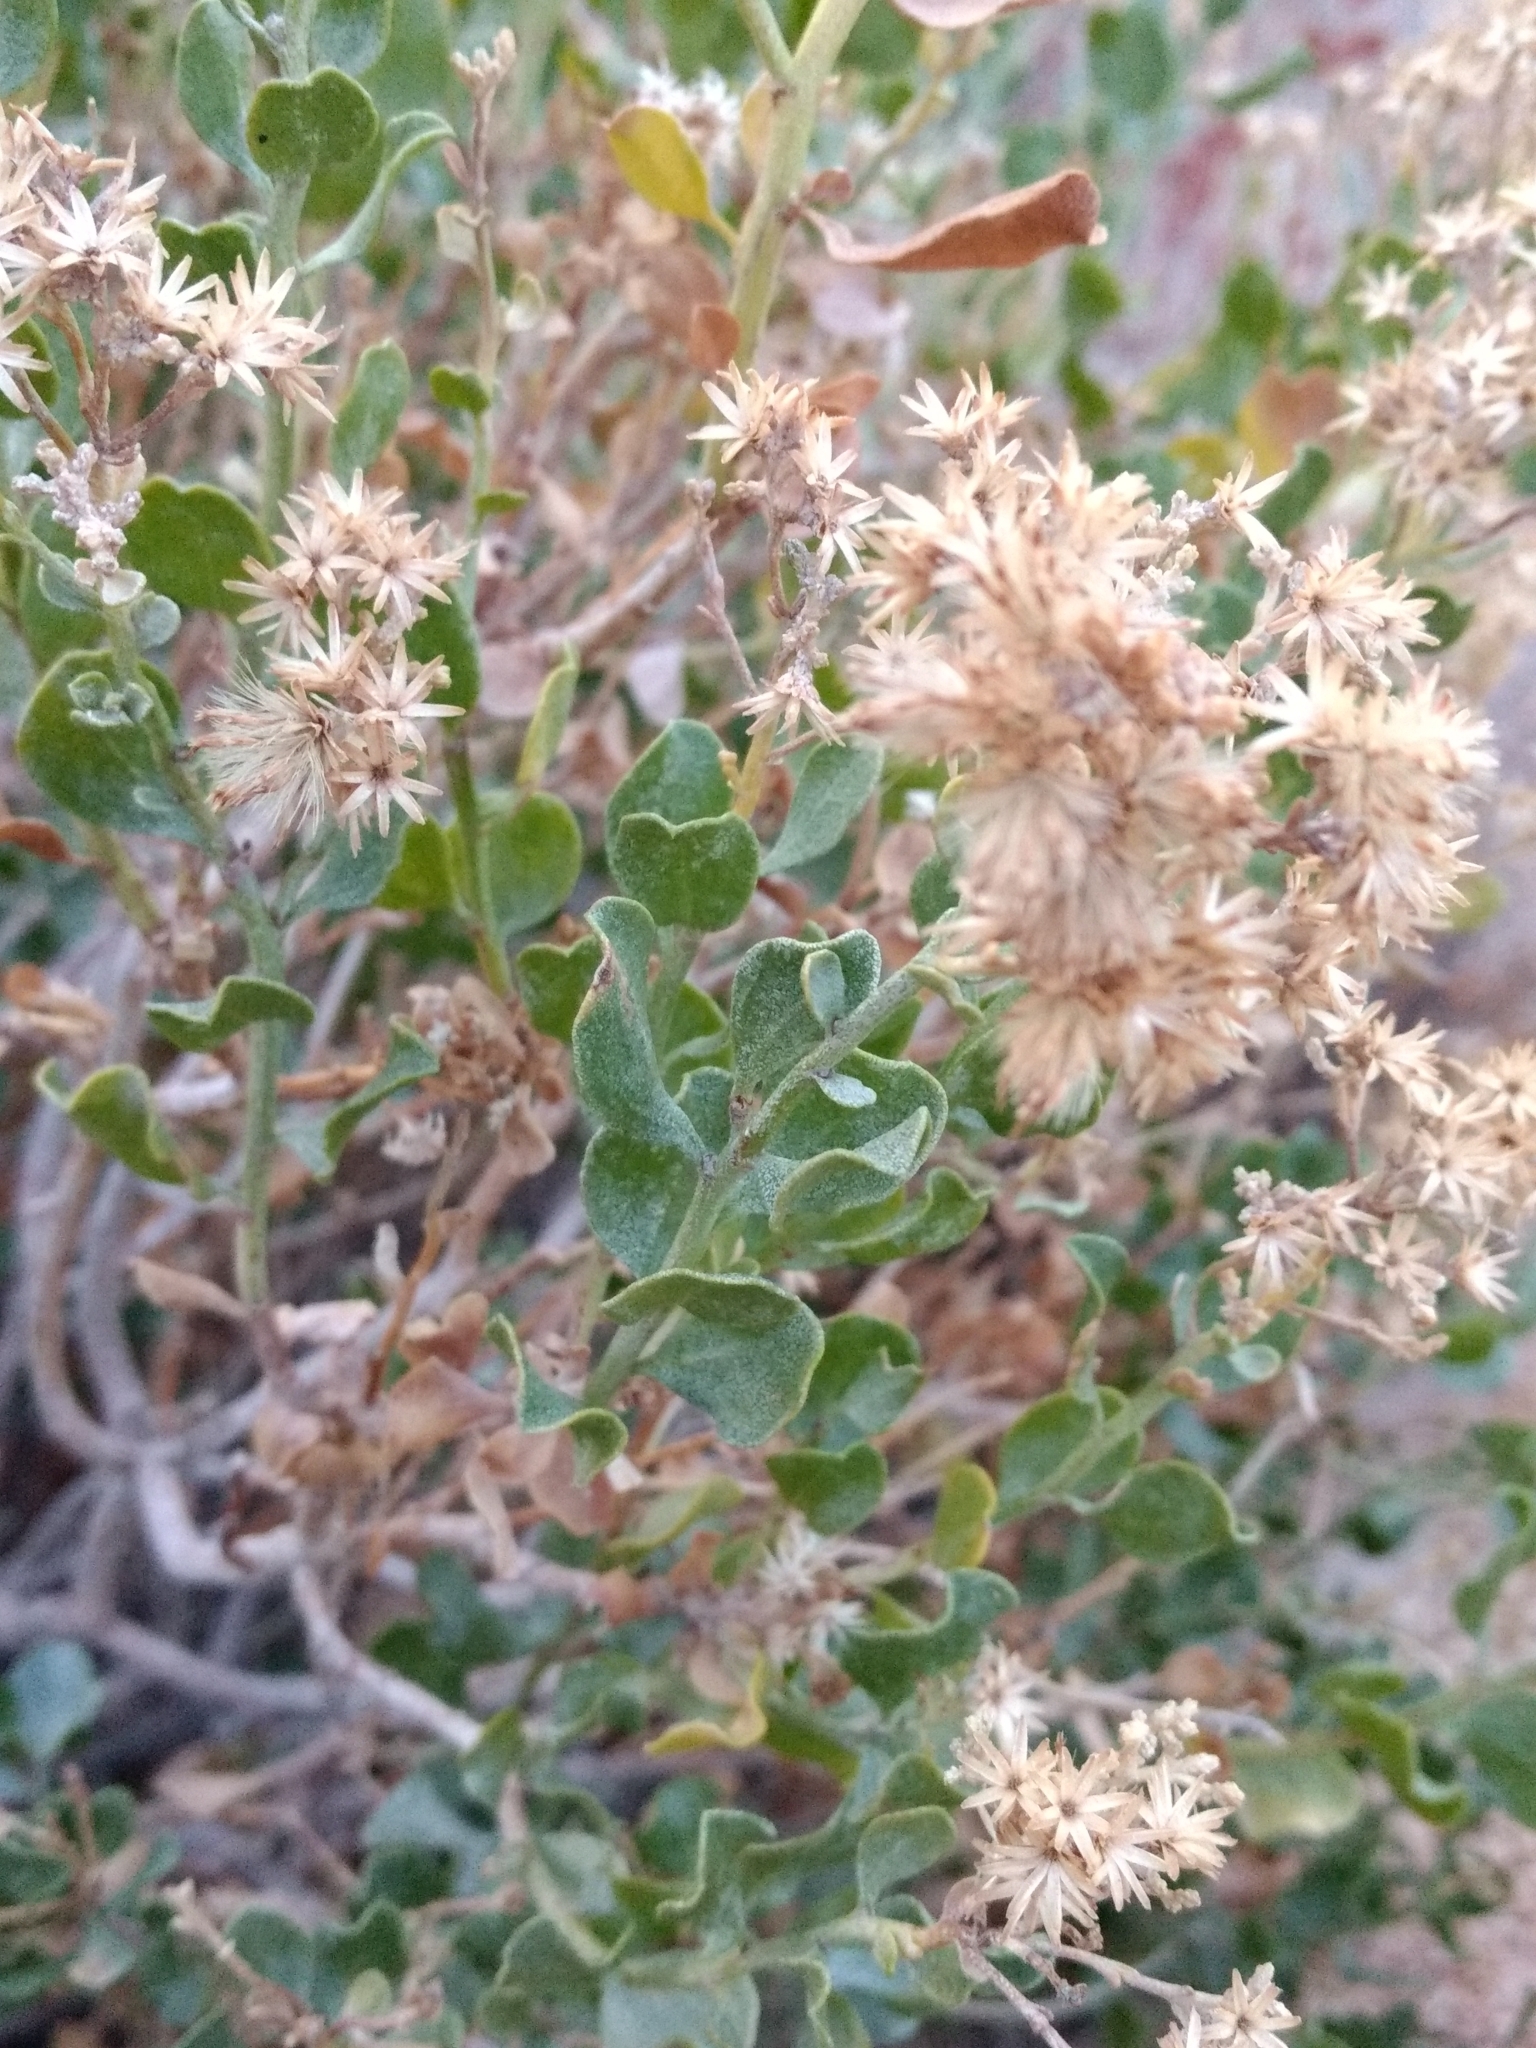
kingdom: Plantae
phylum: Tracheophyta
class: Magnoliopsida
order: Asterales
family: Asteraceae
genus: Ericameria
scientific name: Ericameria cuneata
